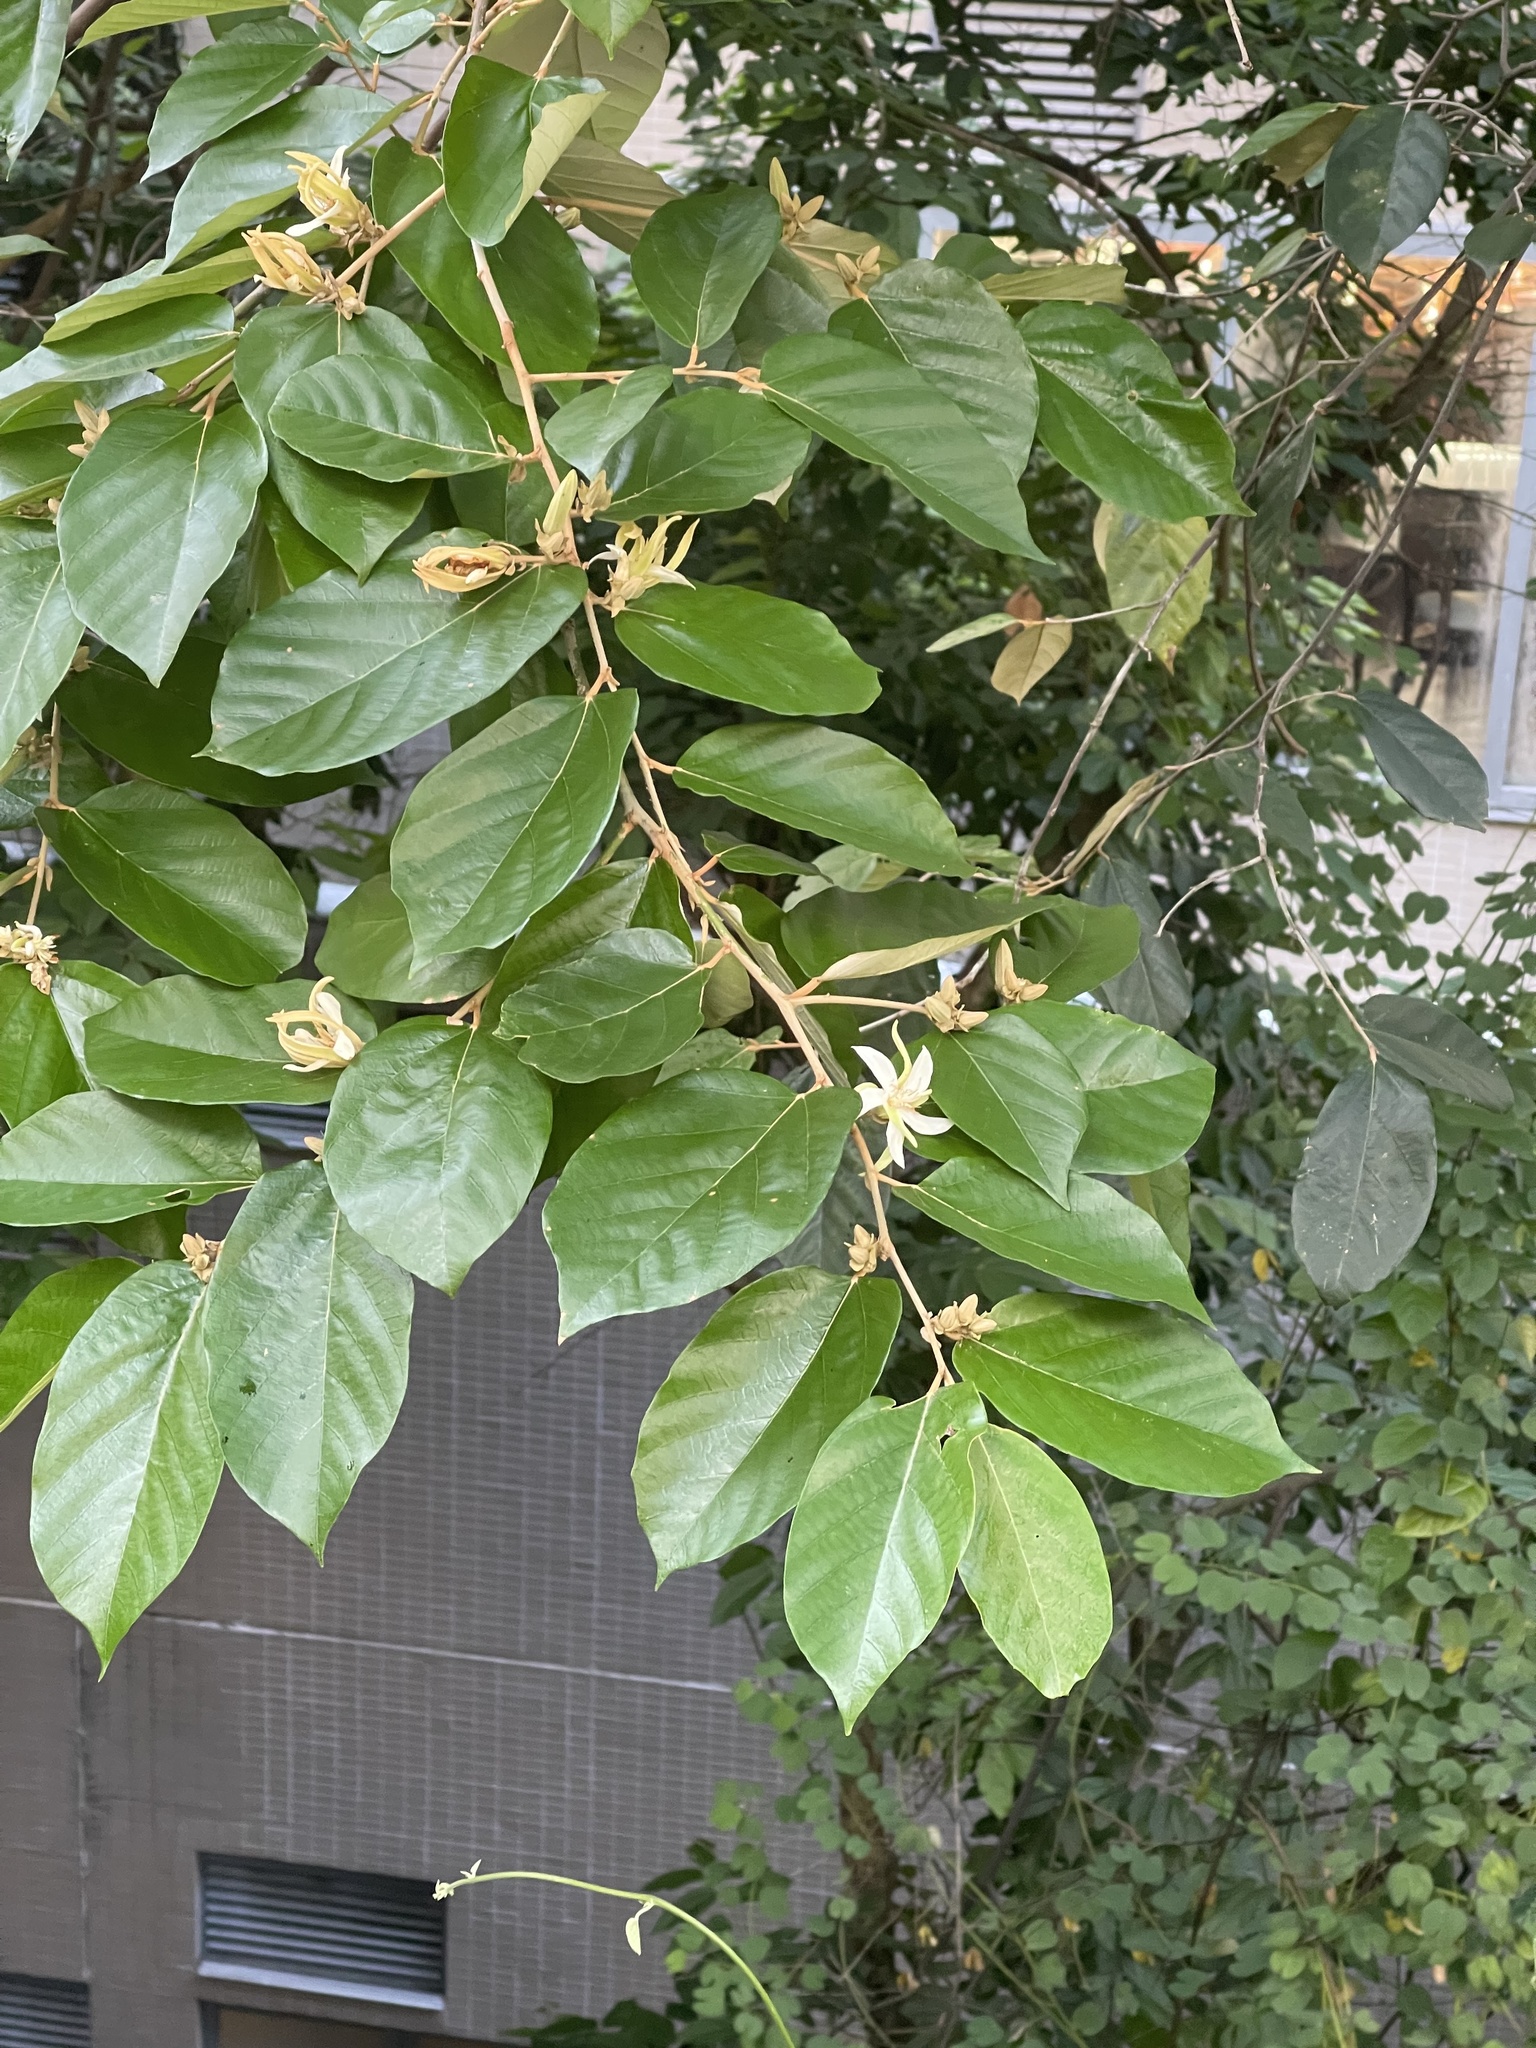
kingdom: Plantae
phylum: Tracheophyta
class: Magnoliopsida
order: Malvales
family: Malvaceae
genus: Pterospermum
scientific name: Pterospermum heterophyllum
